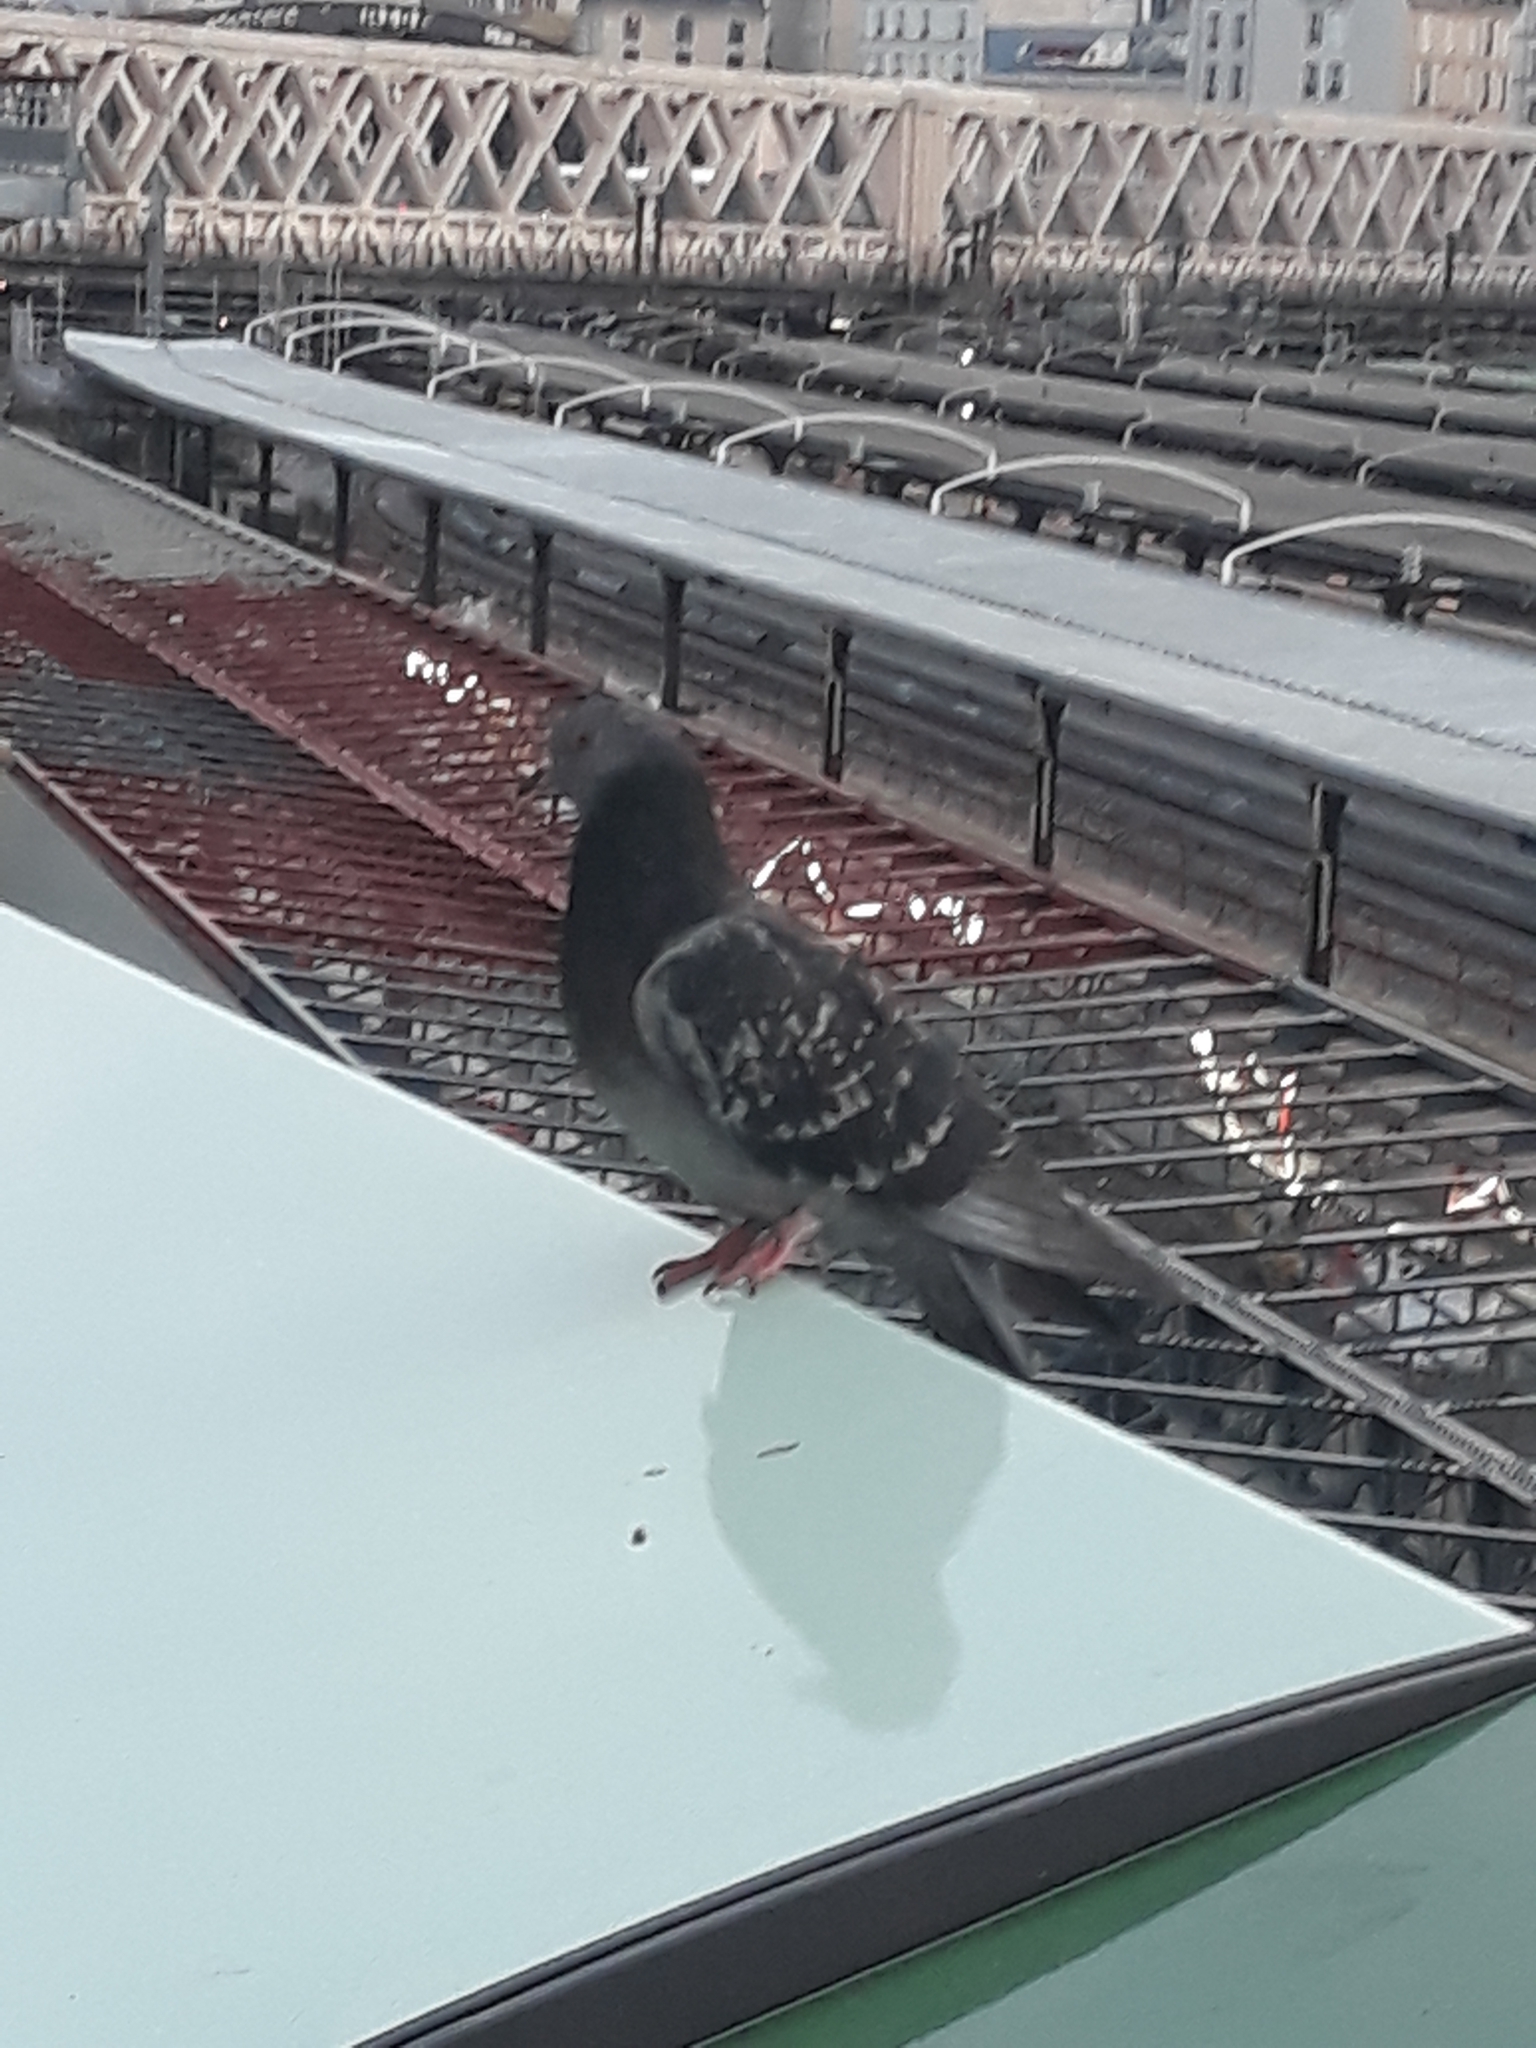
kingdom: Animalia
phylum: Chordata
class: Aves
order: Columbiformes
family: Columbidae
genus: Columba
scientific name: Columba livia
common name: Rock pigeon
